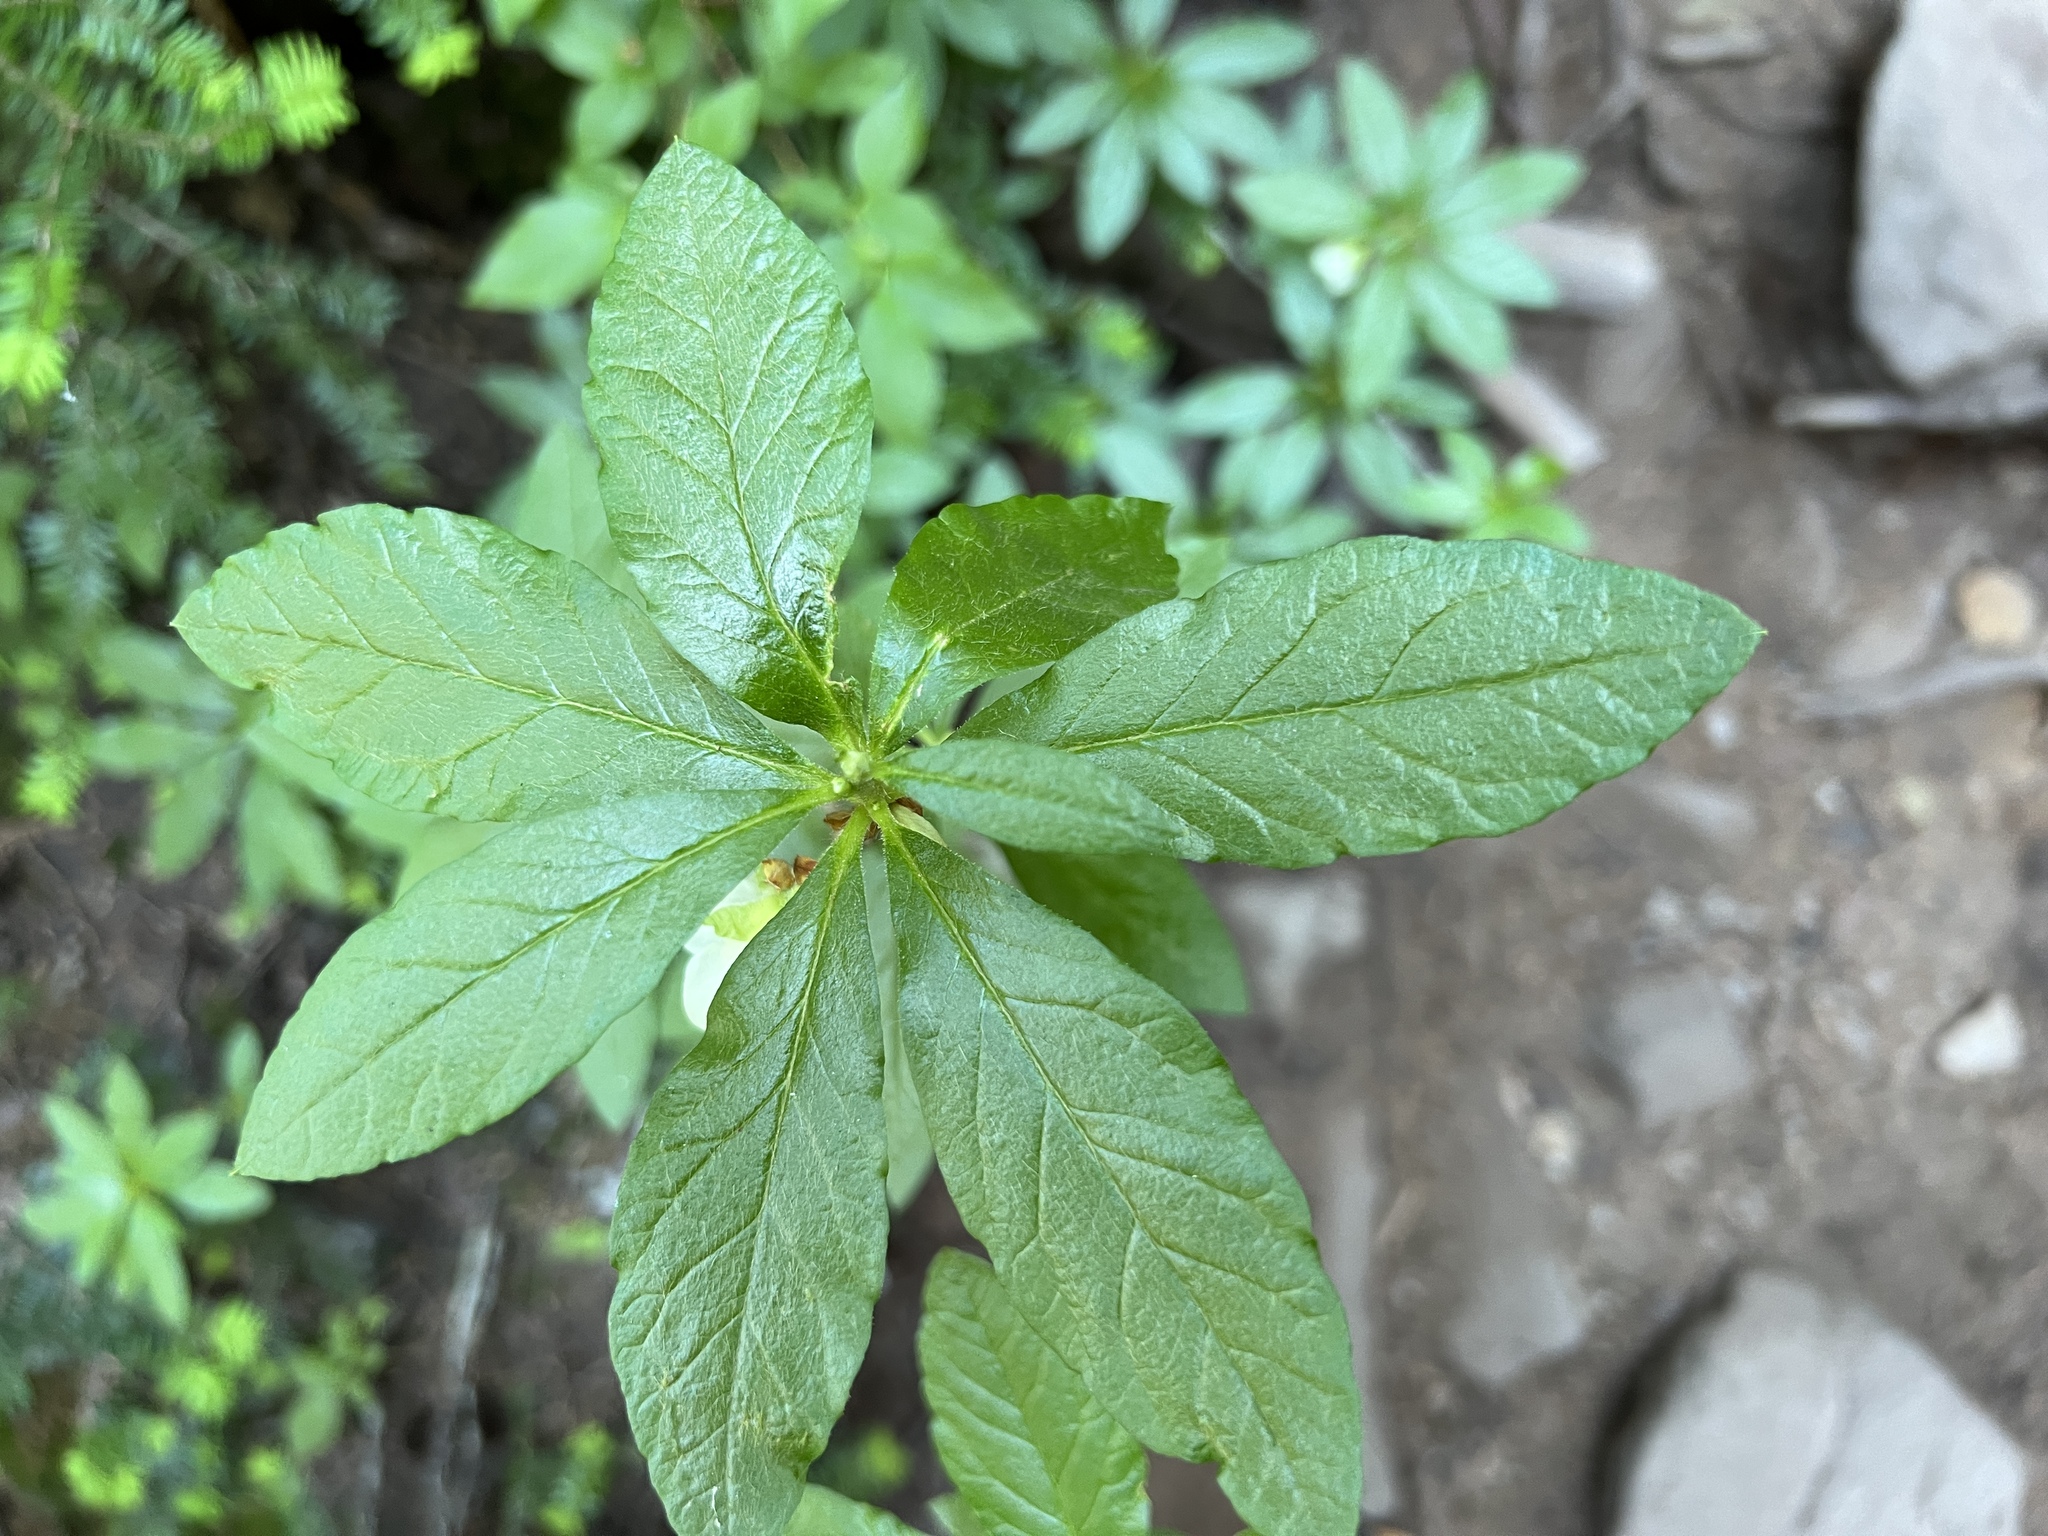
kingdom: Plantae
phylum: Tracheophyta
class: Magnoliopsida
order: Ericales
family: Ericaceae
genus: Rhododendron
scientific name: Rhododendron albiflorum
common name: White rhododendron
